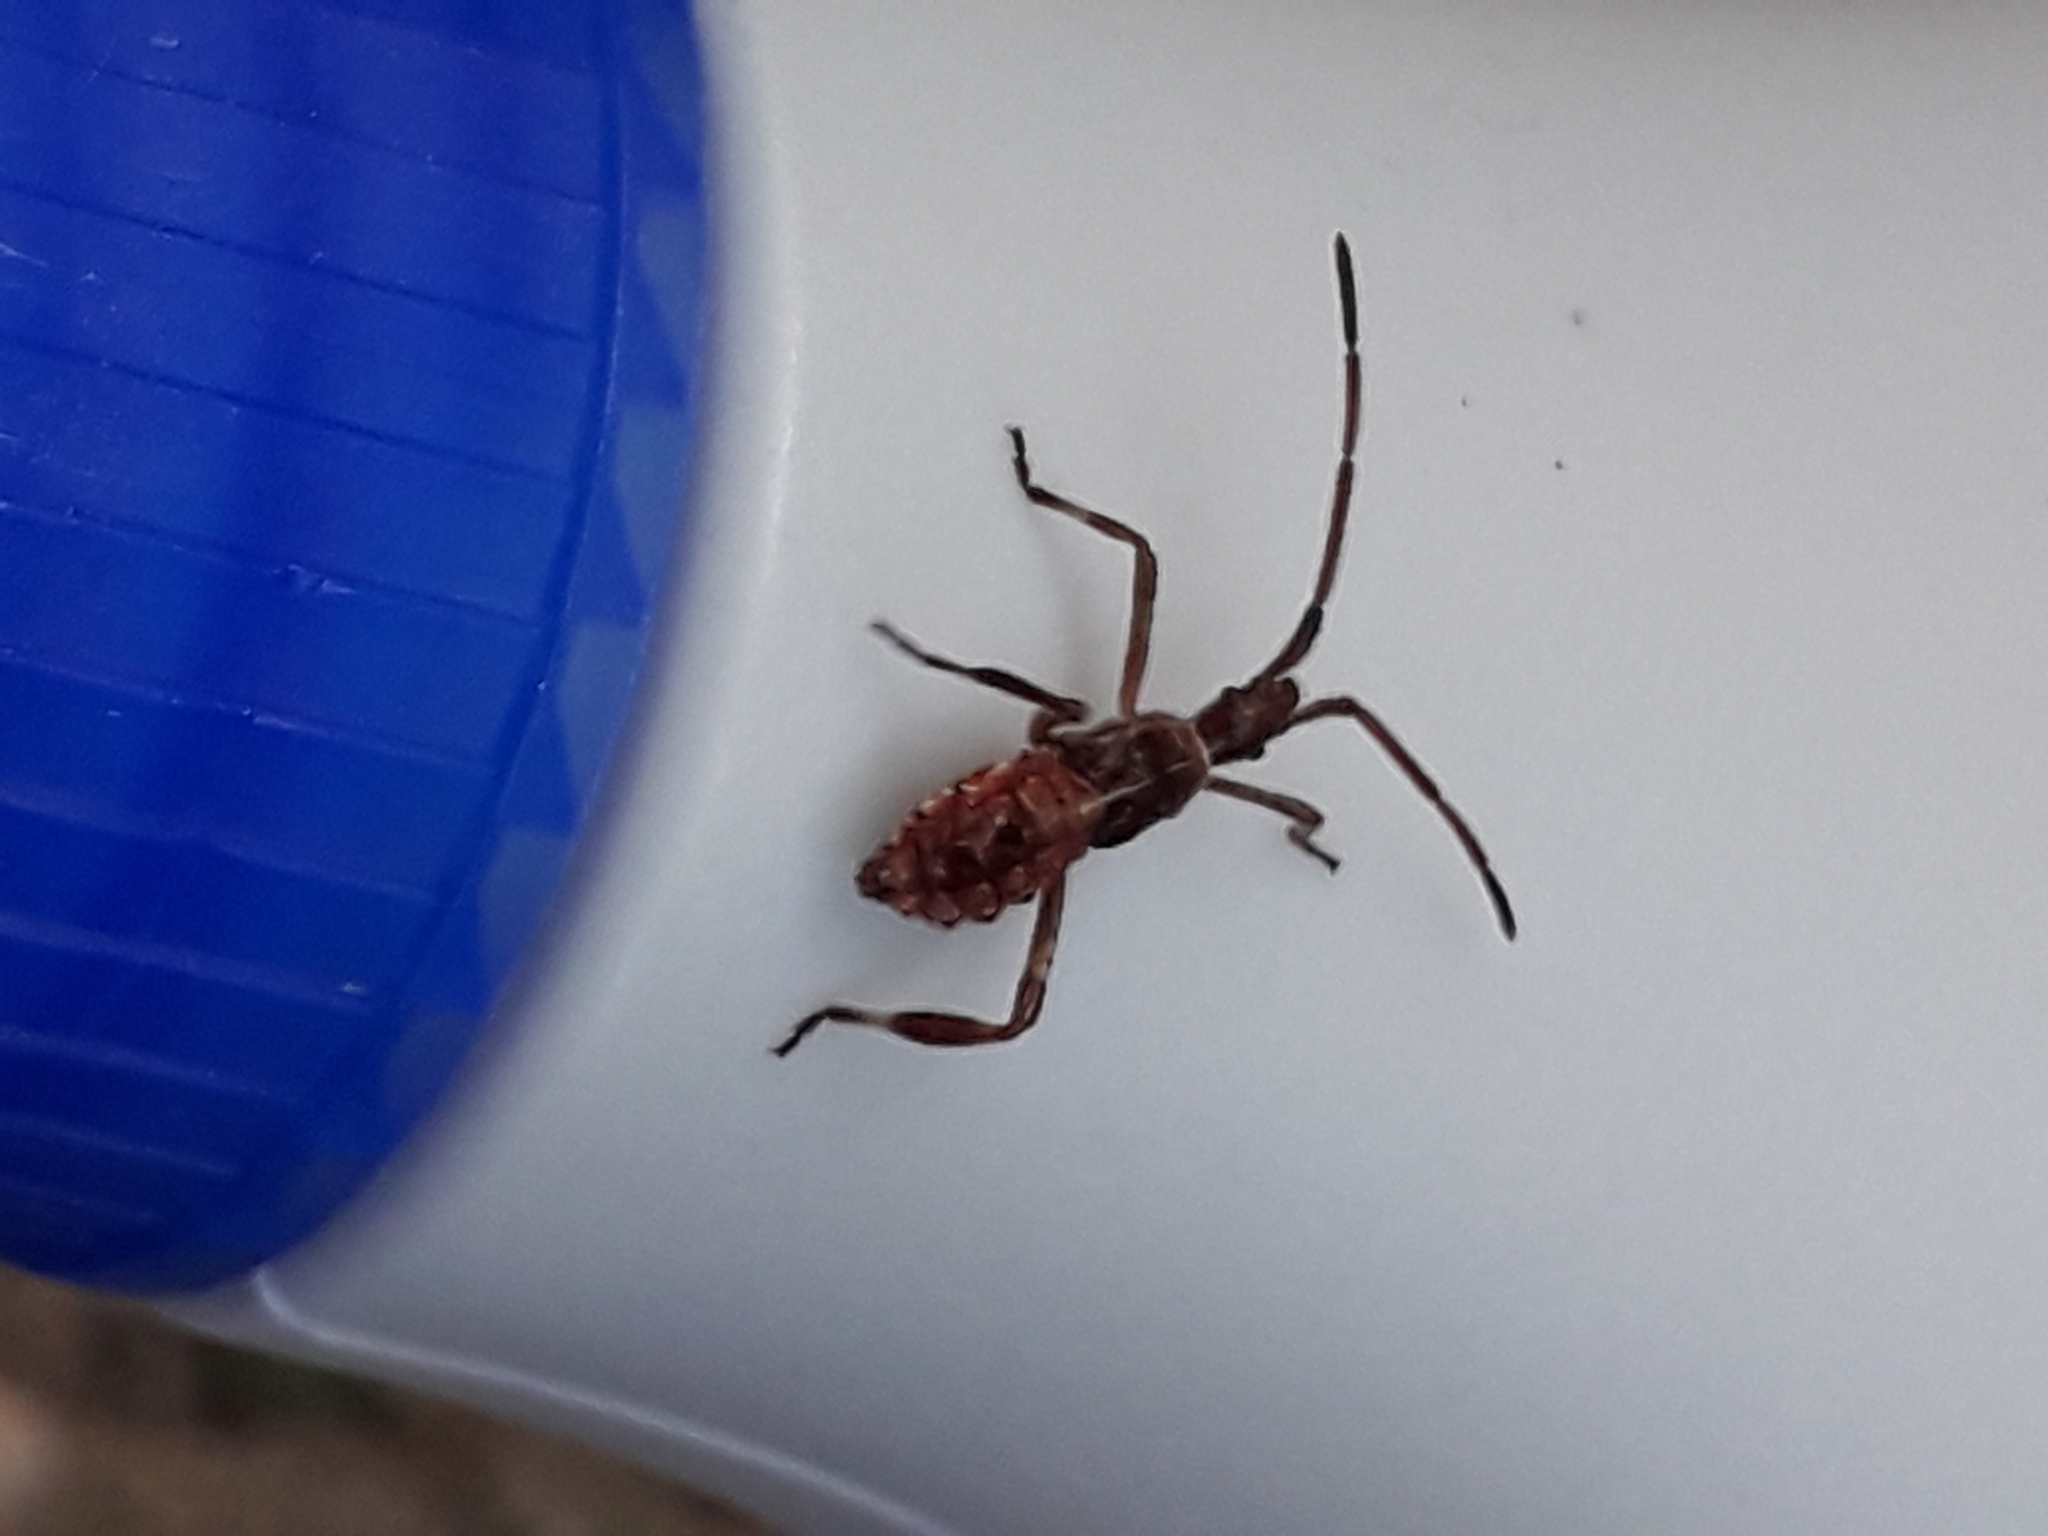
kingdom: Animalia
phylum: Arthropoda
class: Insecta
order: Hemiptera
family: Coreidae
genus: Leptoglossus
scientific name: Leptoglossus occidentalis
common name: Western conifer-seed bug
